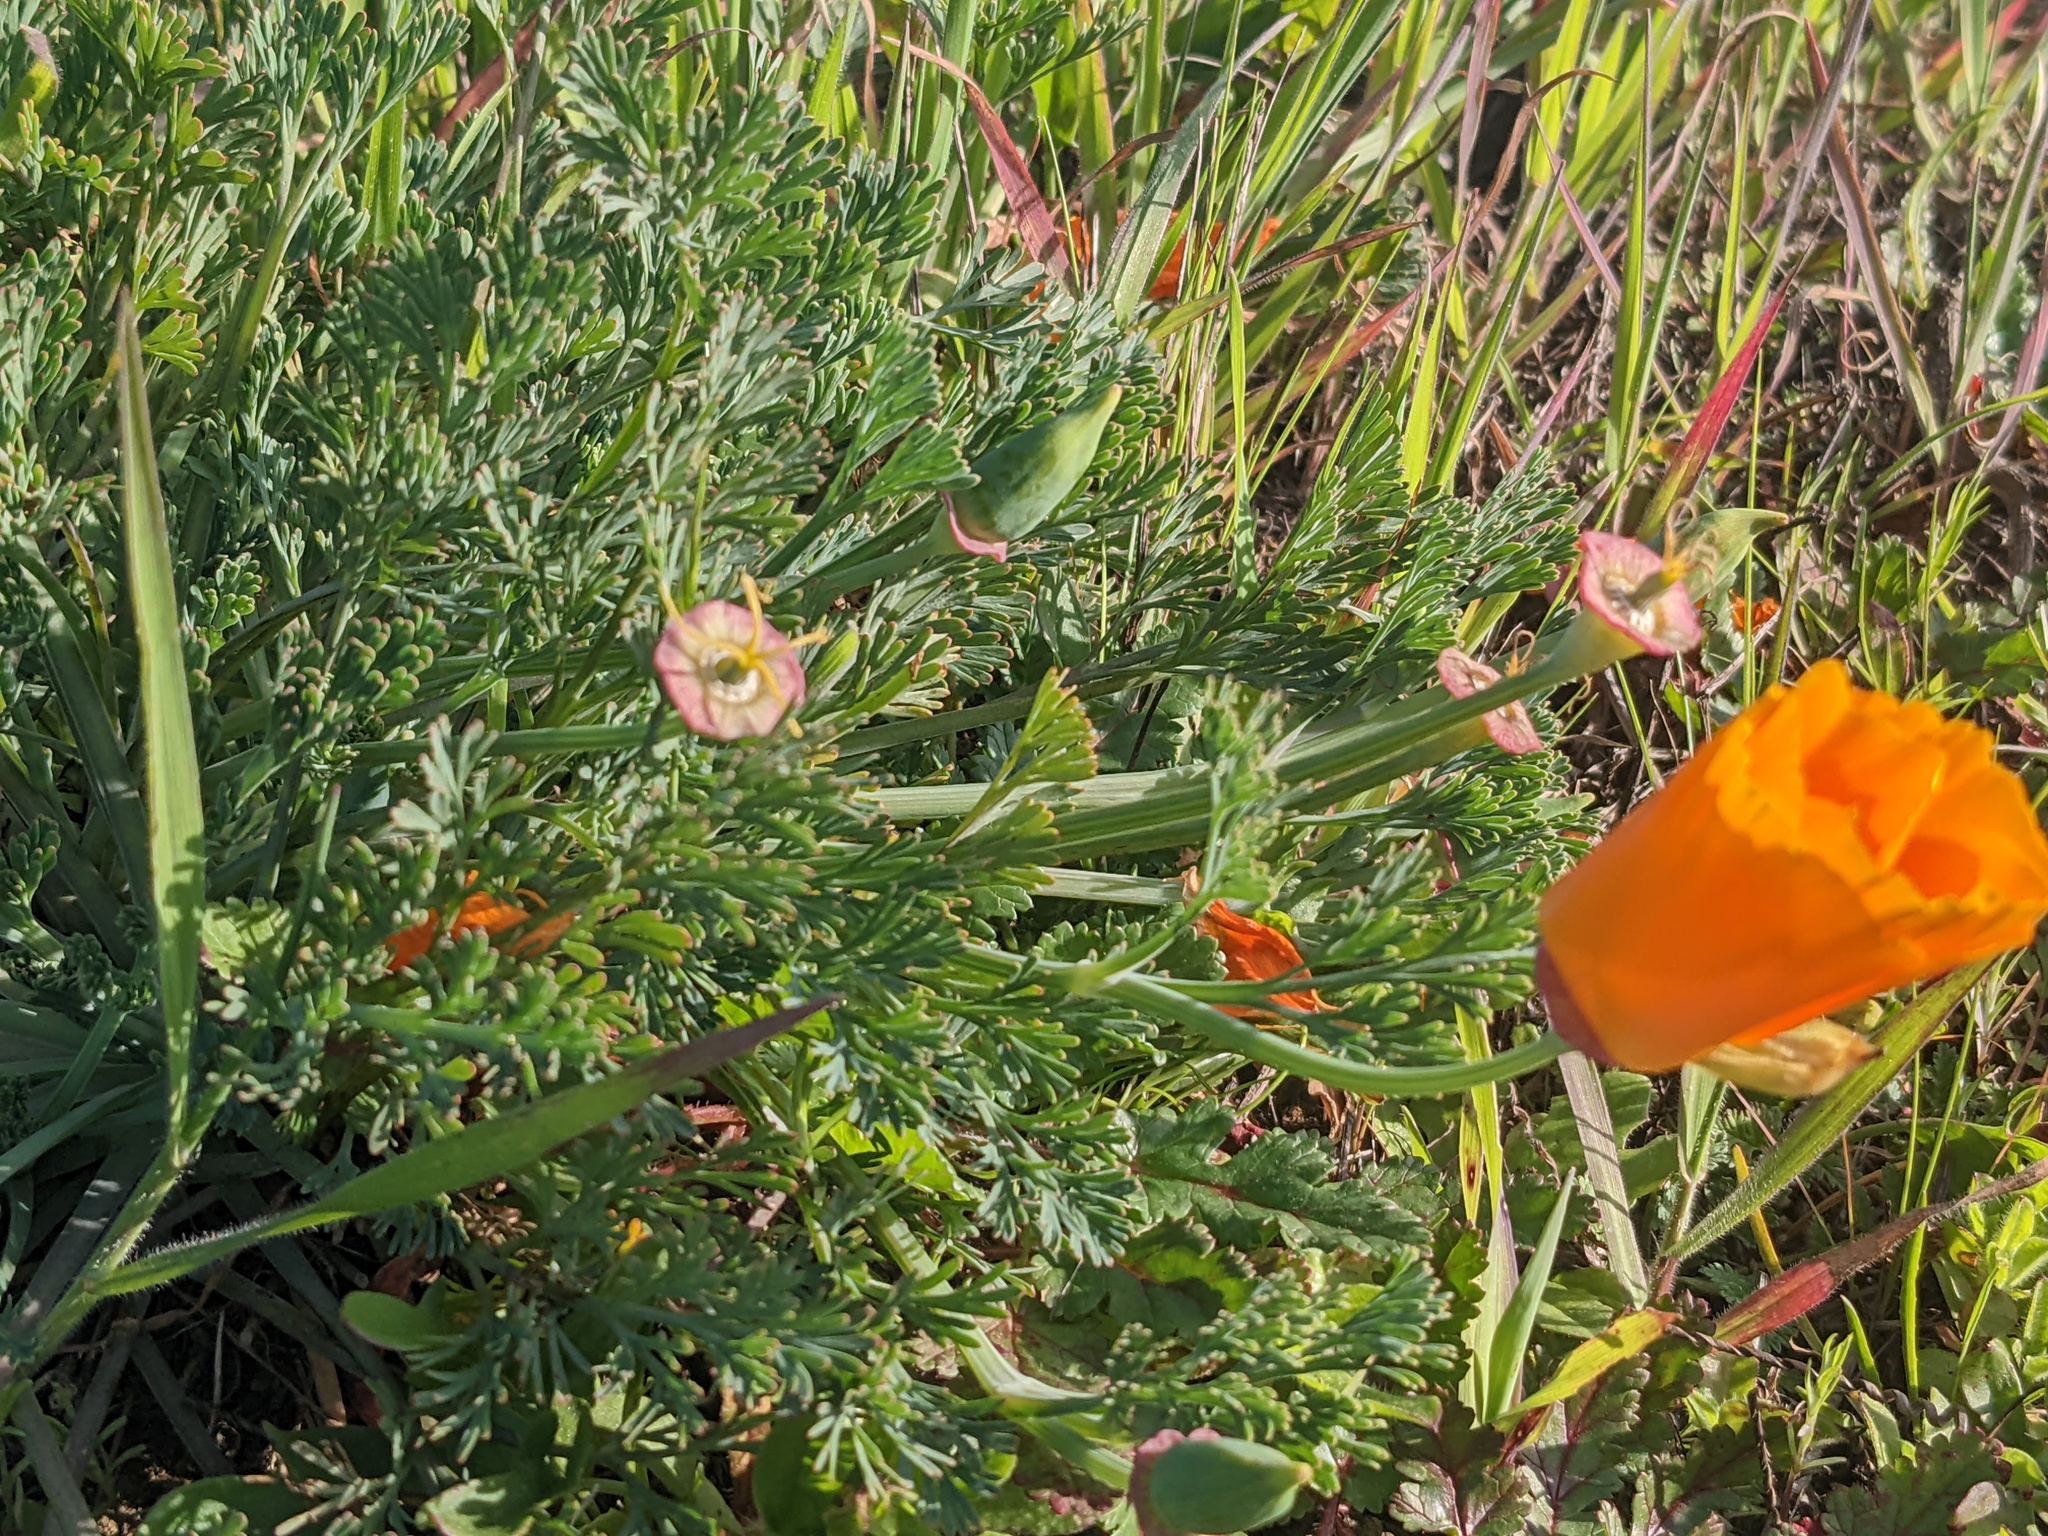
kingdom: Plantae
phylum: Tracheophyta
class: Magnoliopsida
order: Ranunculales
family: Papaveraceae
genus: Eschscholzia
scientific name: Eschscholzia californica
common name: California poppy
